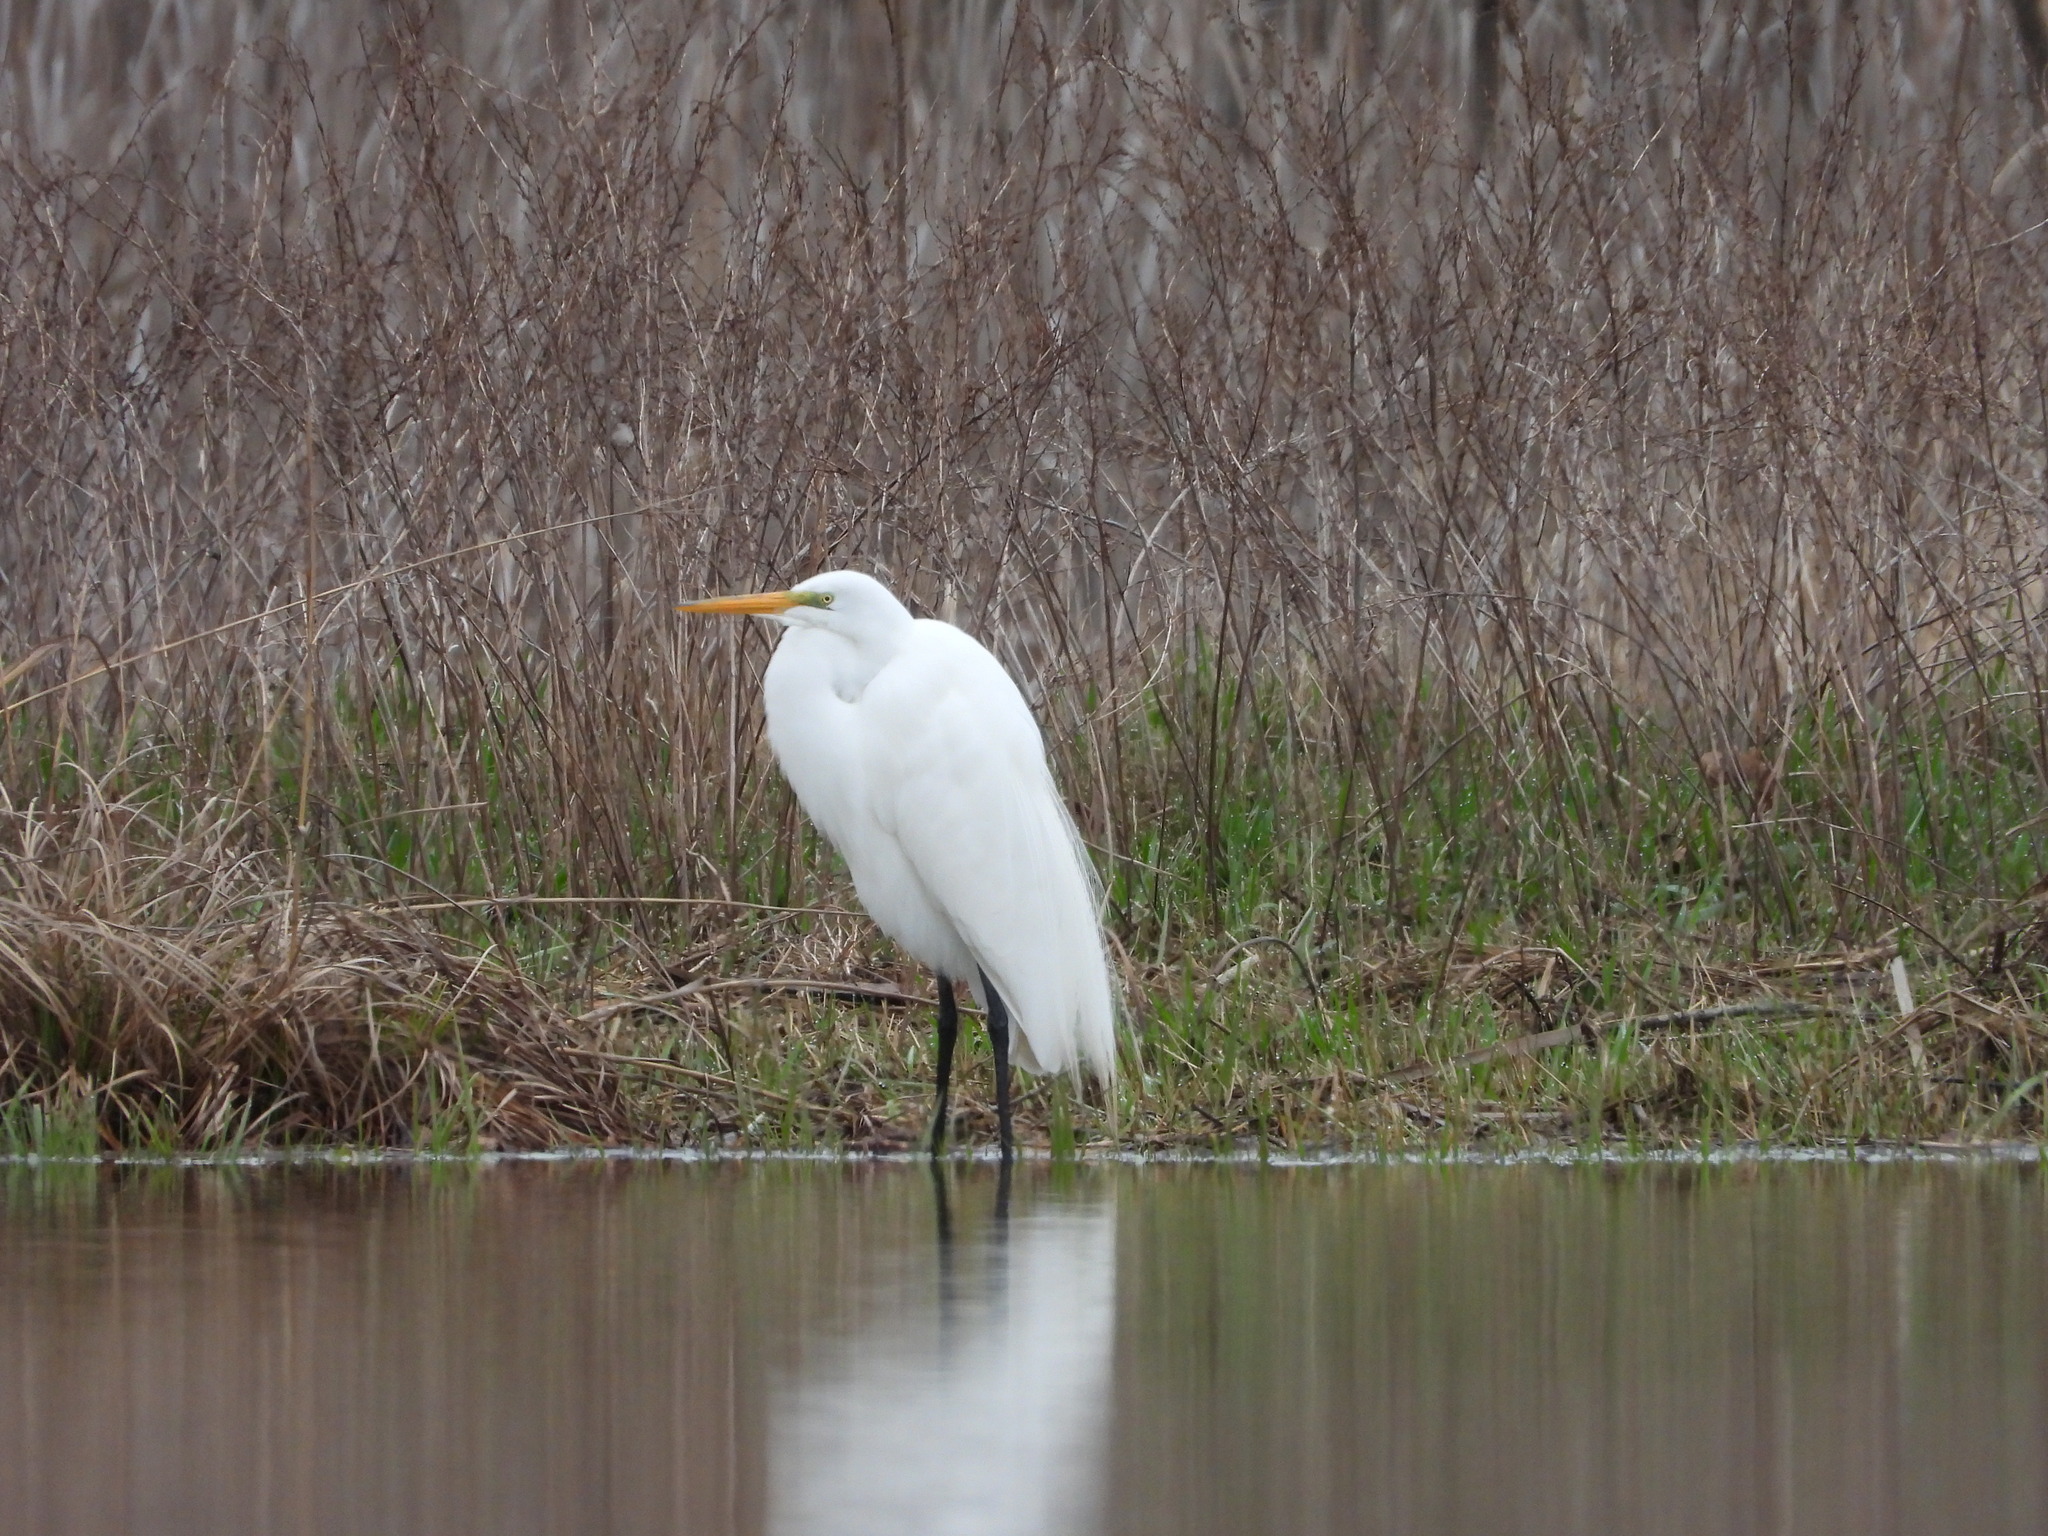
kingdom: Animalia
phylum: Chordata
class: Aves
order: Pelecaniformes
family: Ardeidae
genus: Ardea
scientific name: Ardea alba
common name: Great egret
